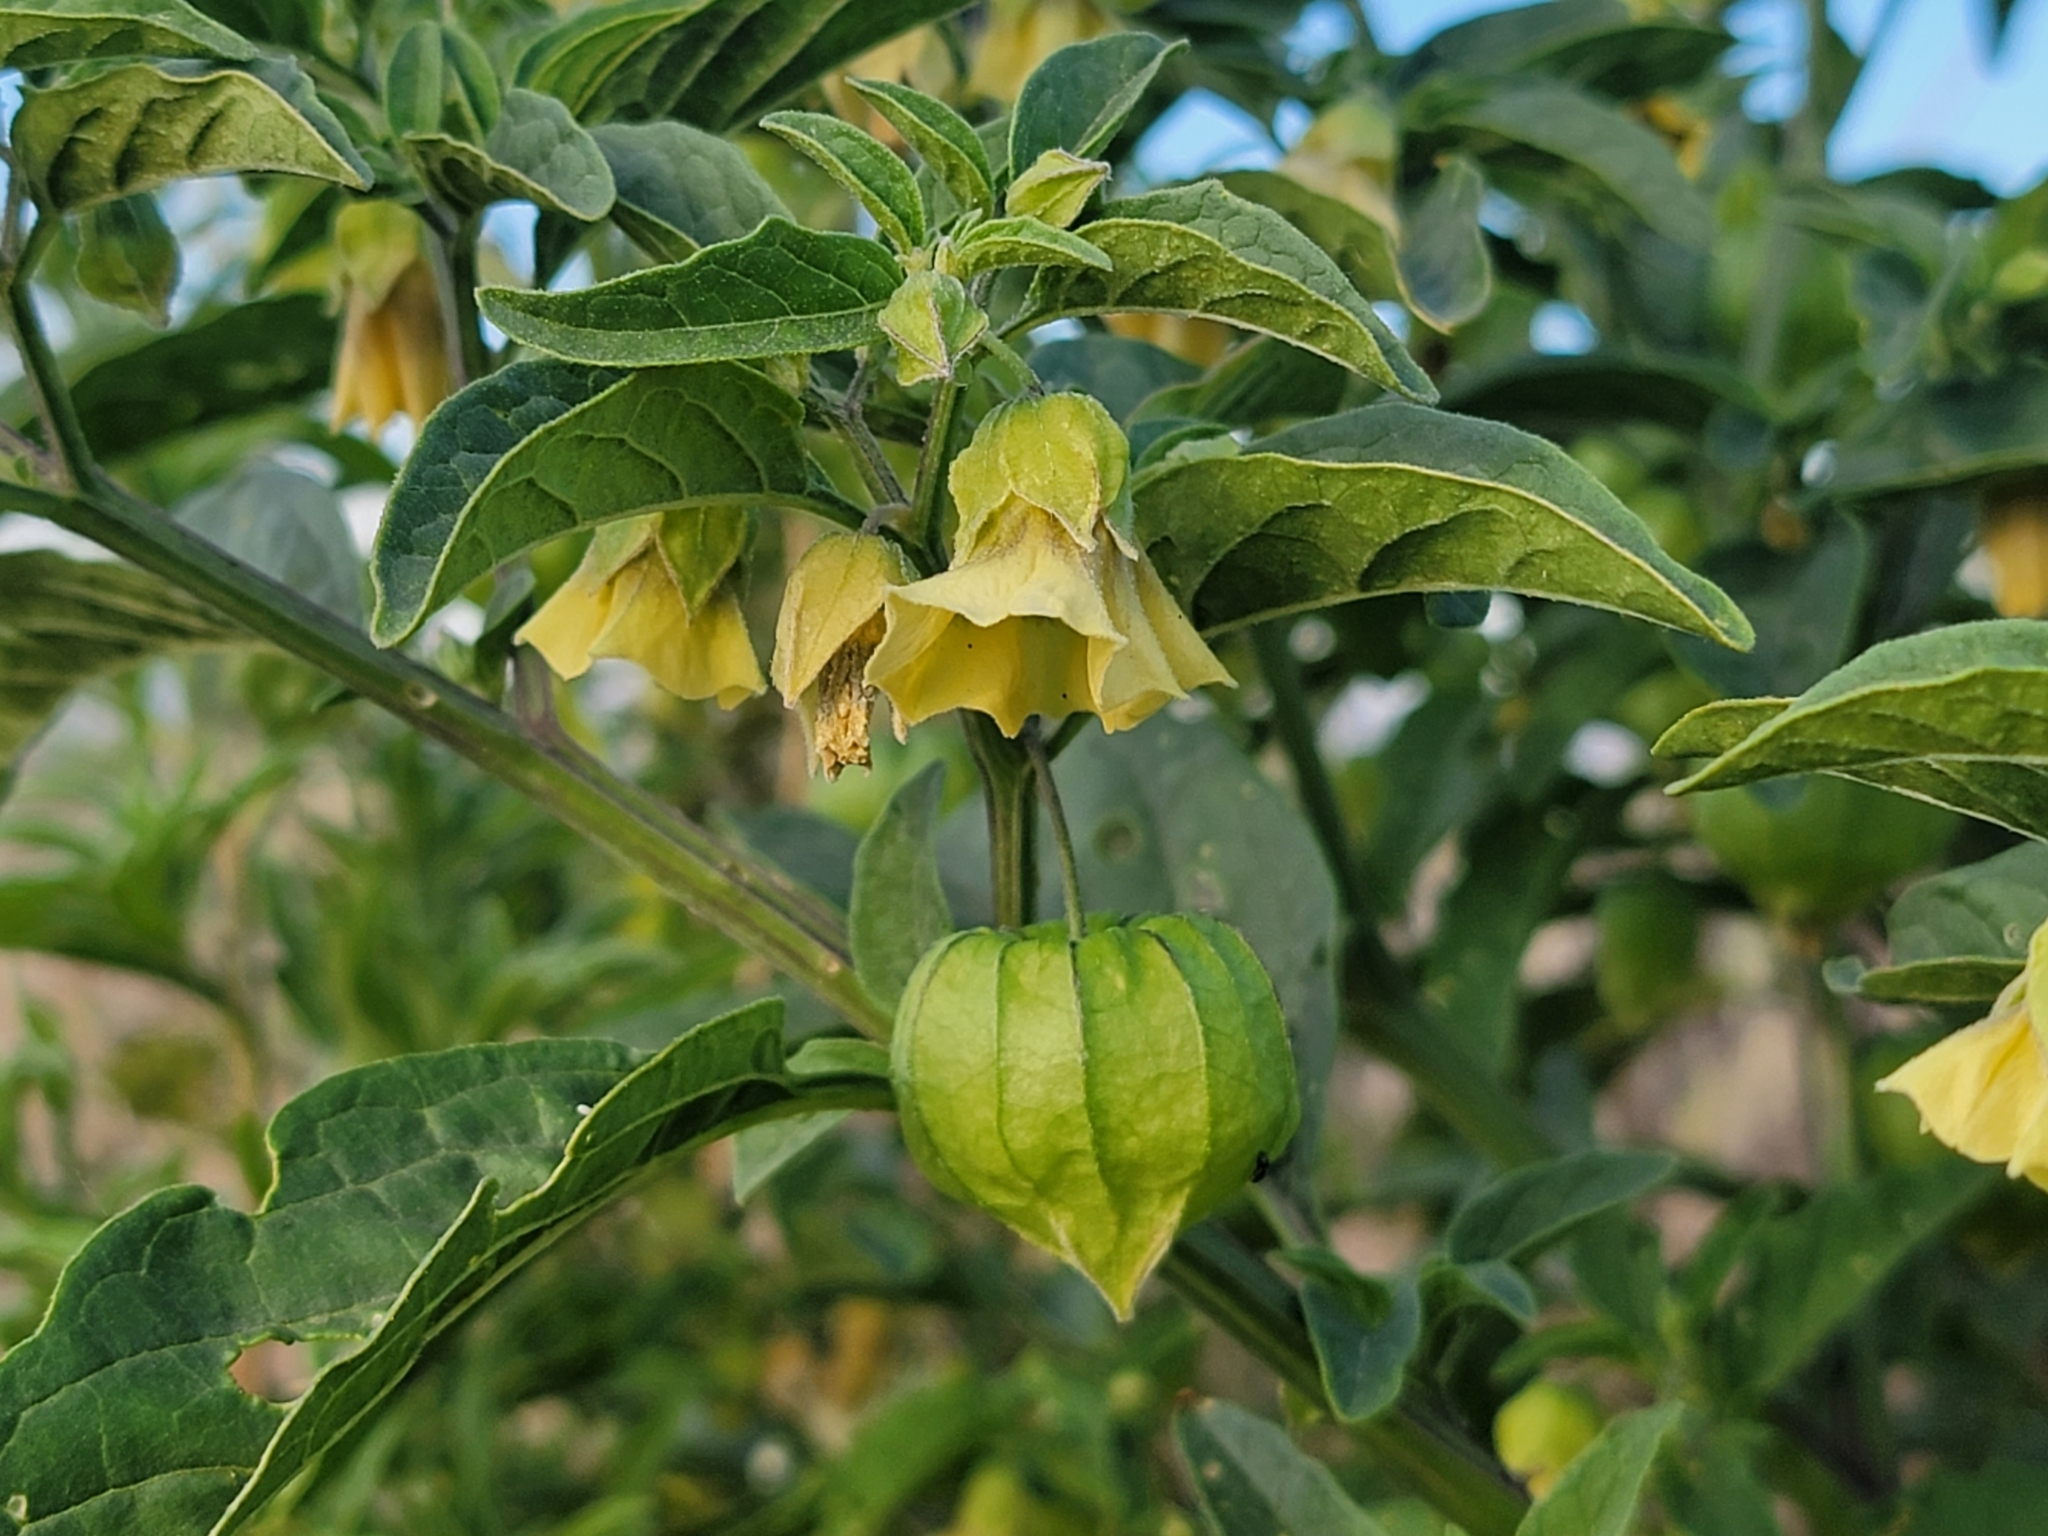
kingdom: Plantae
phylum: Tracheophyta
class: Magnoliopsida
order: Solanales
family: Solanaceae
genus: Physalis
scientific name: Physalis longifolia
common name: Common ground-cherry
